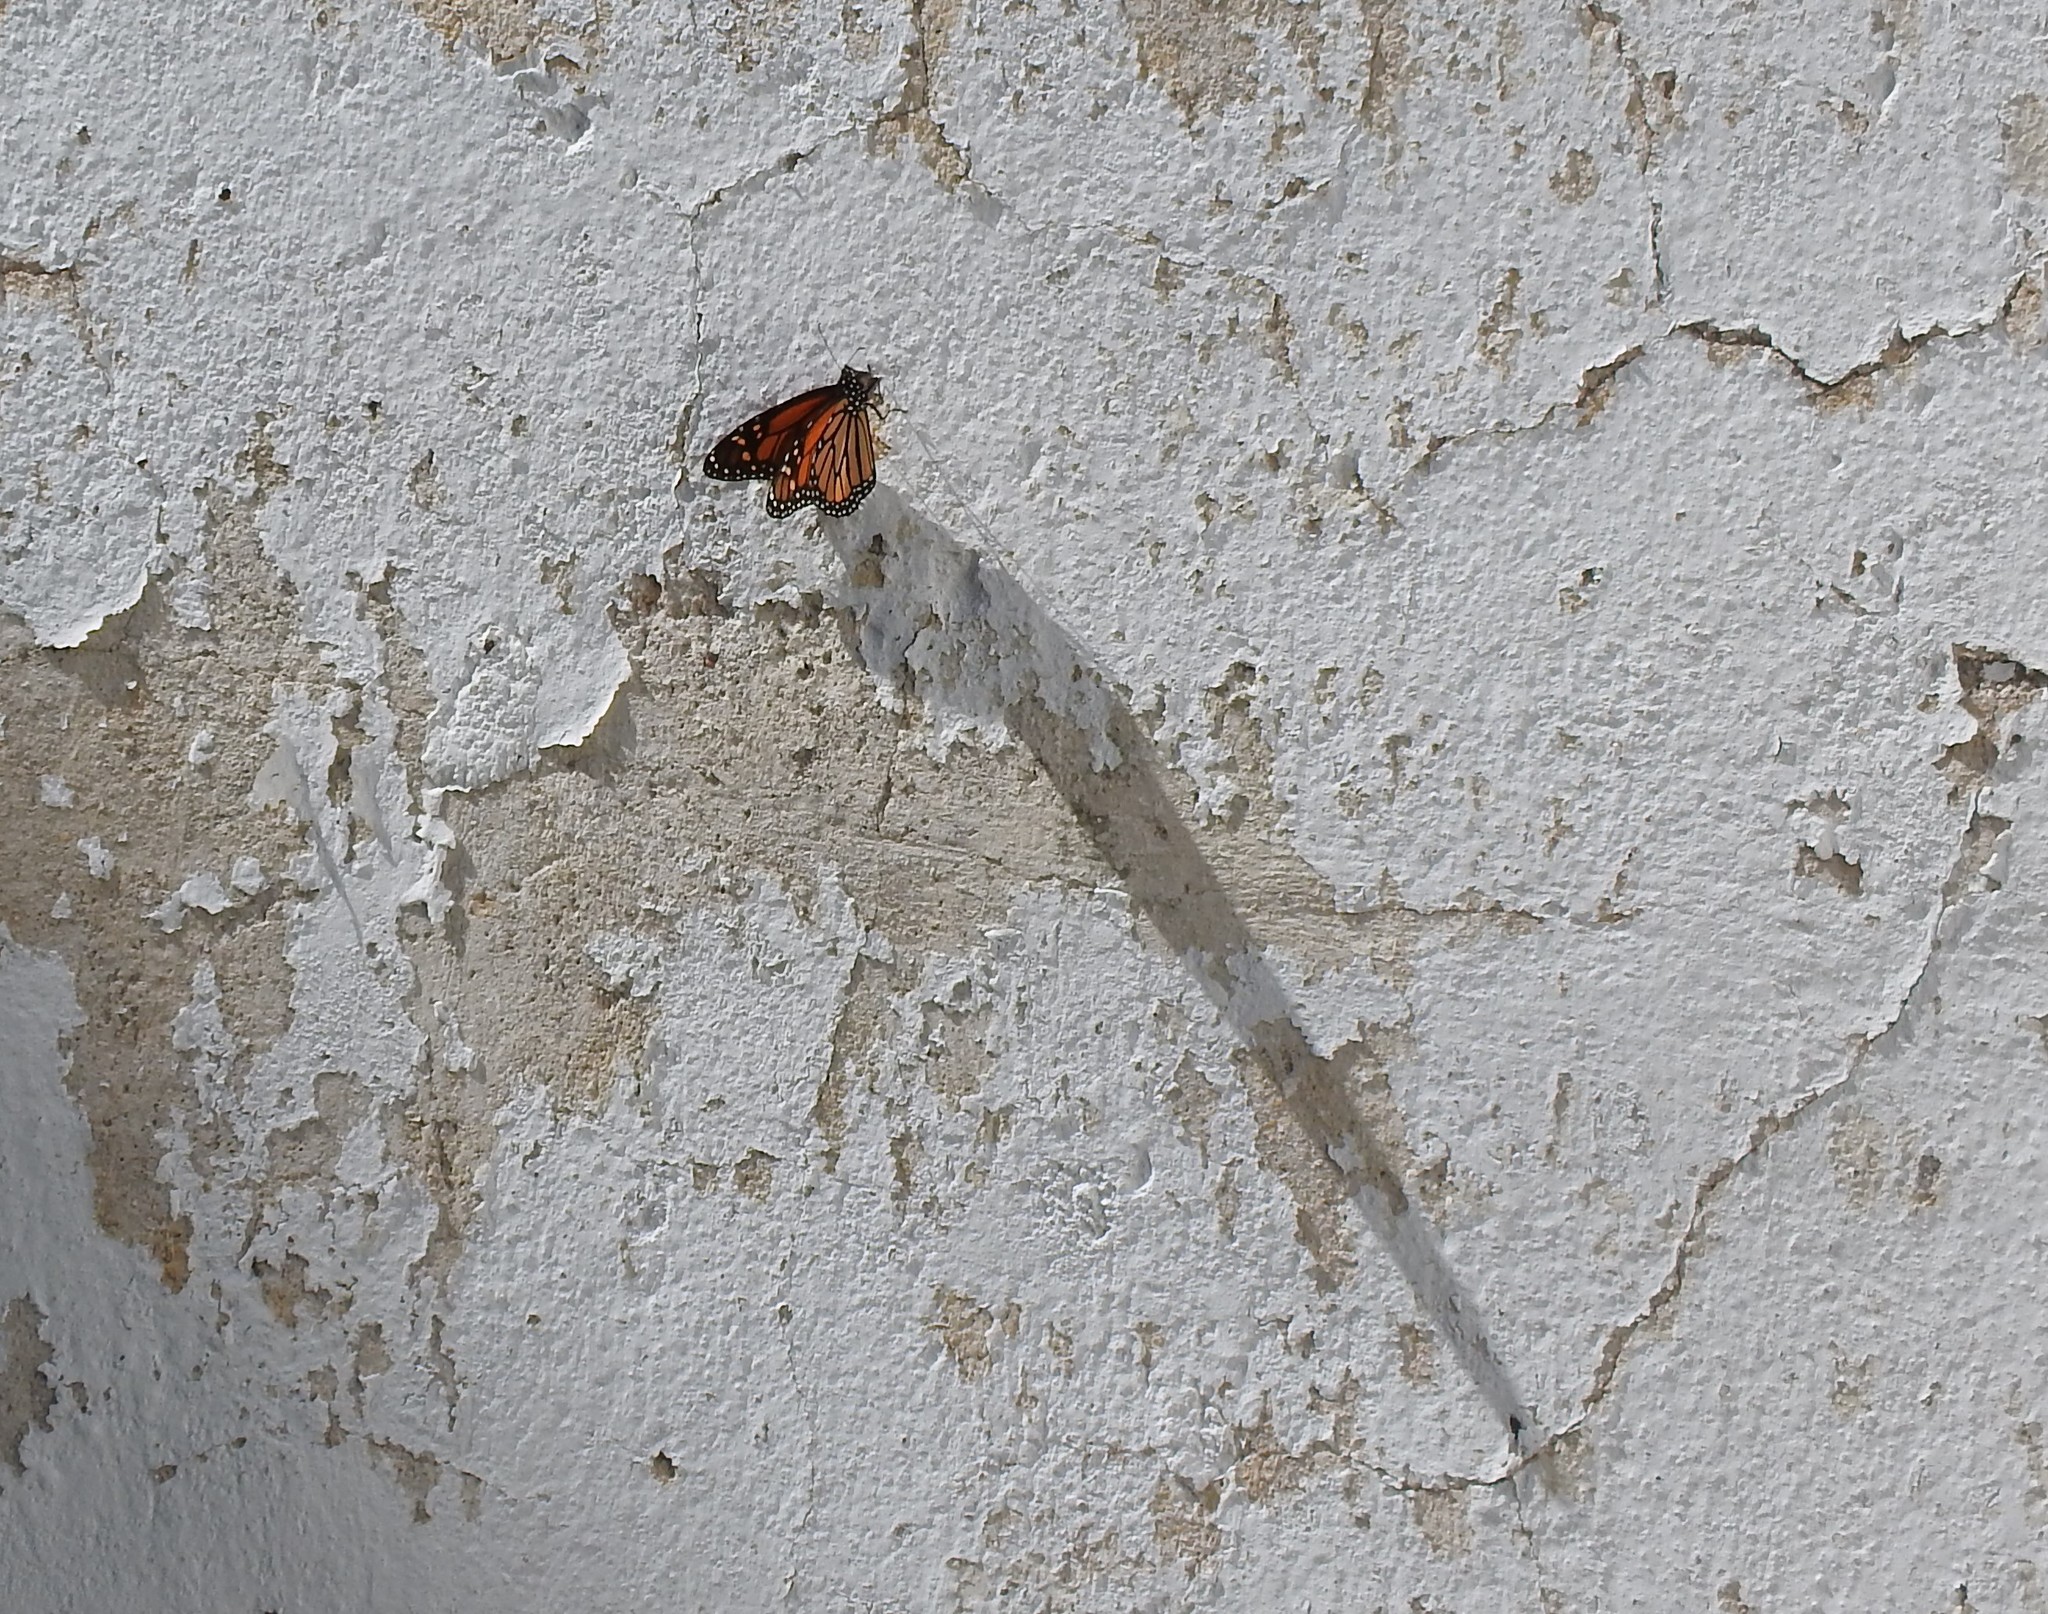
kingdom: Animalia
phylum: Arthropoda
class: Insecta
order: Lepidoptera
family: Nymphalidae
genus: Danaus
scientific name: Danaus plexippus
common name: Monarch
